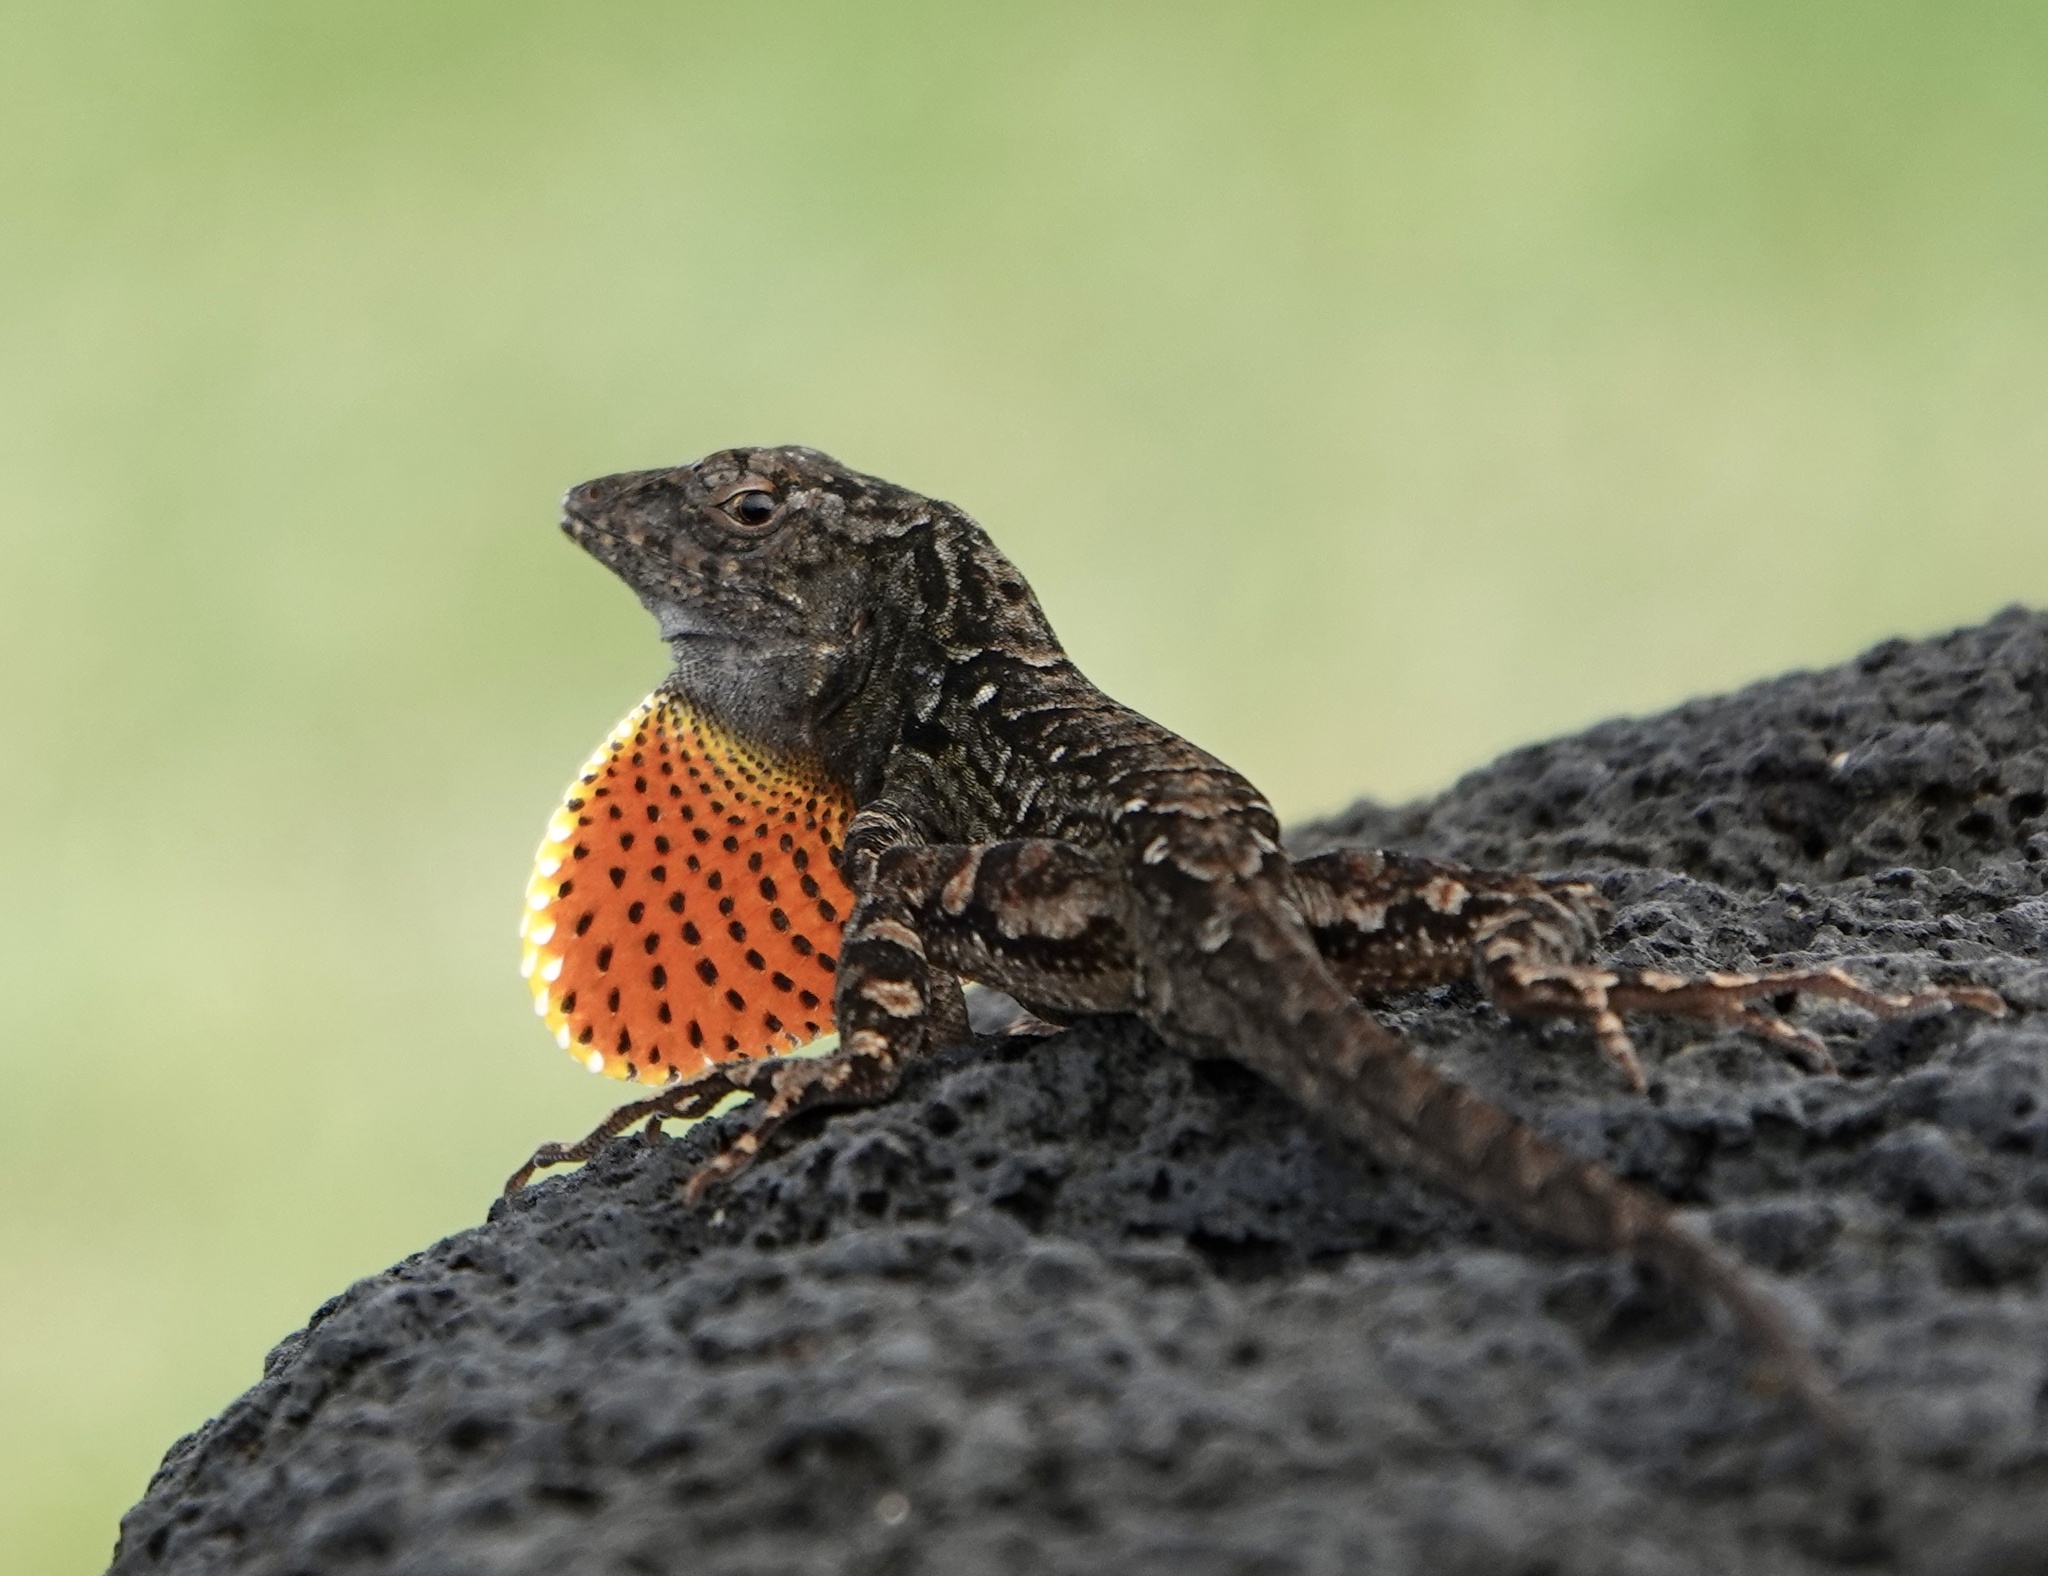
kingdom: Animalia
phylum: Chordata
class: Squamata
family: Dactyloidae
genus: Anolis
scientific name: Anolis sagrei
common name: Brown anole
